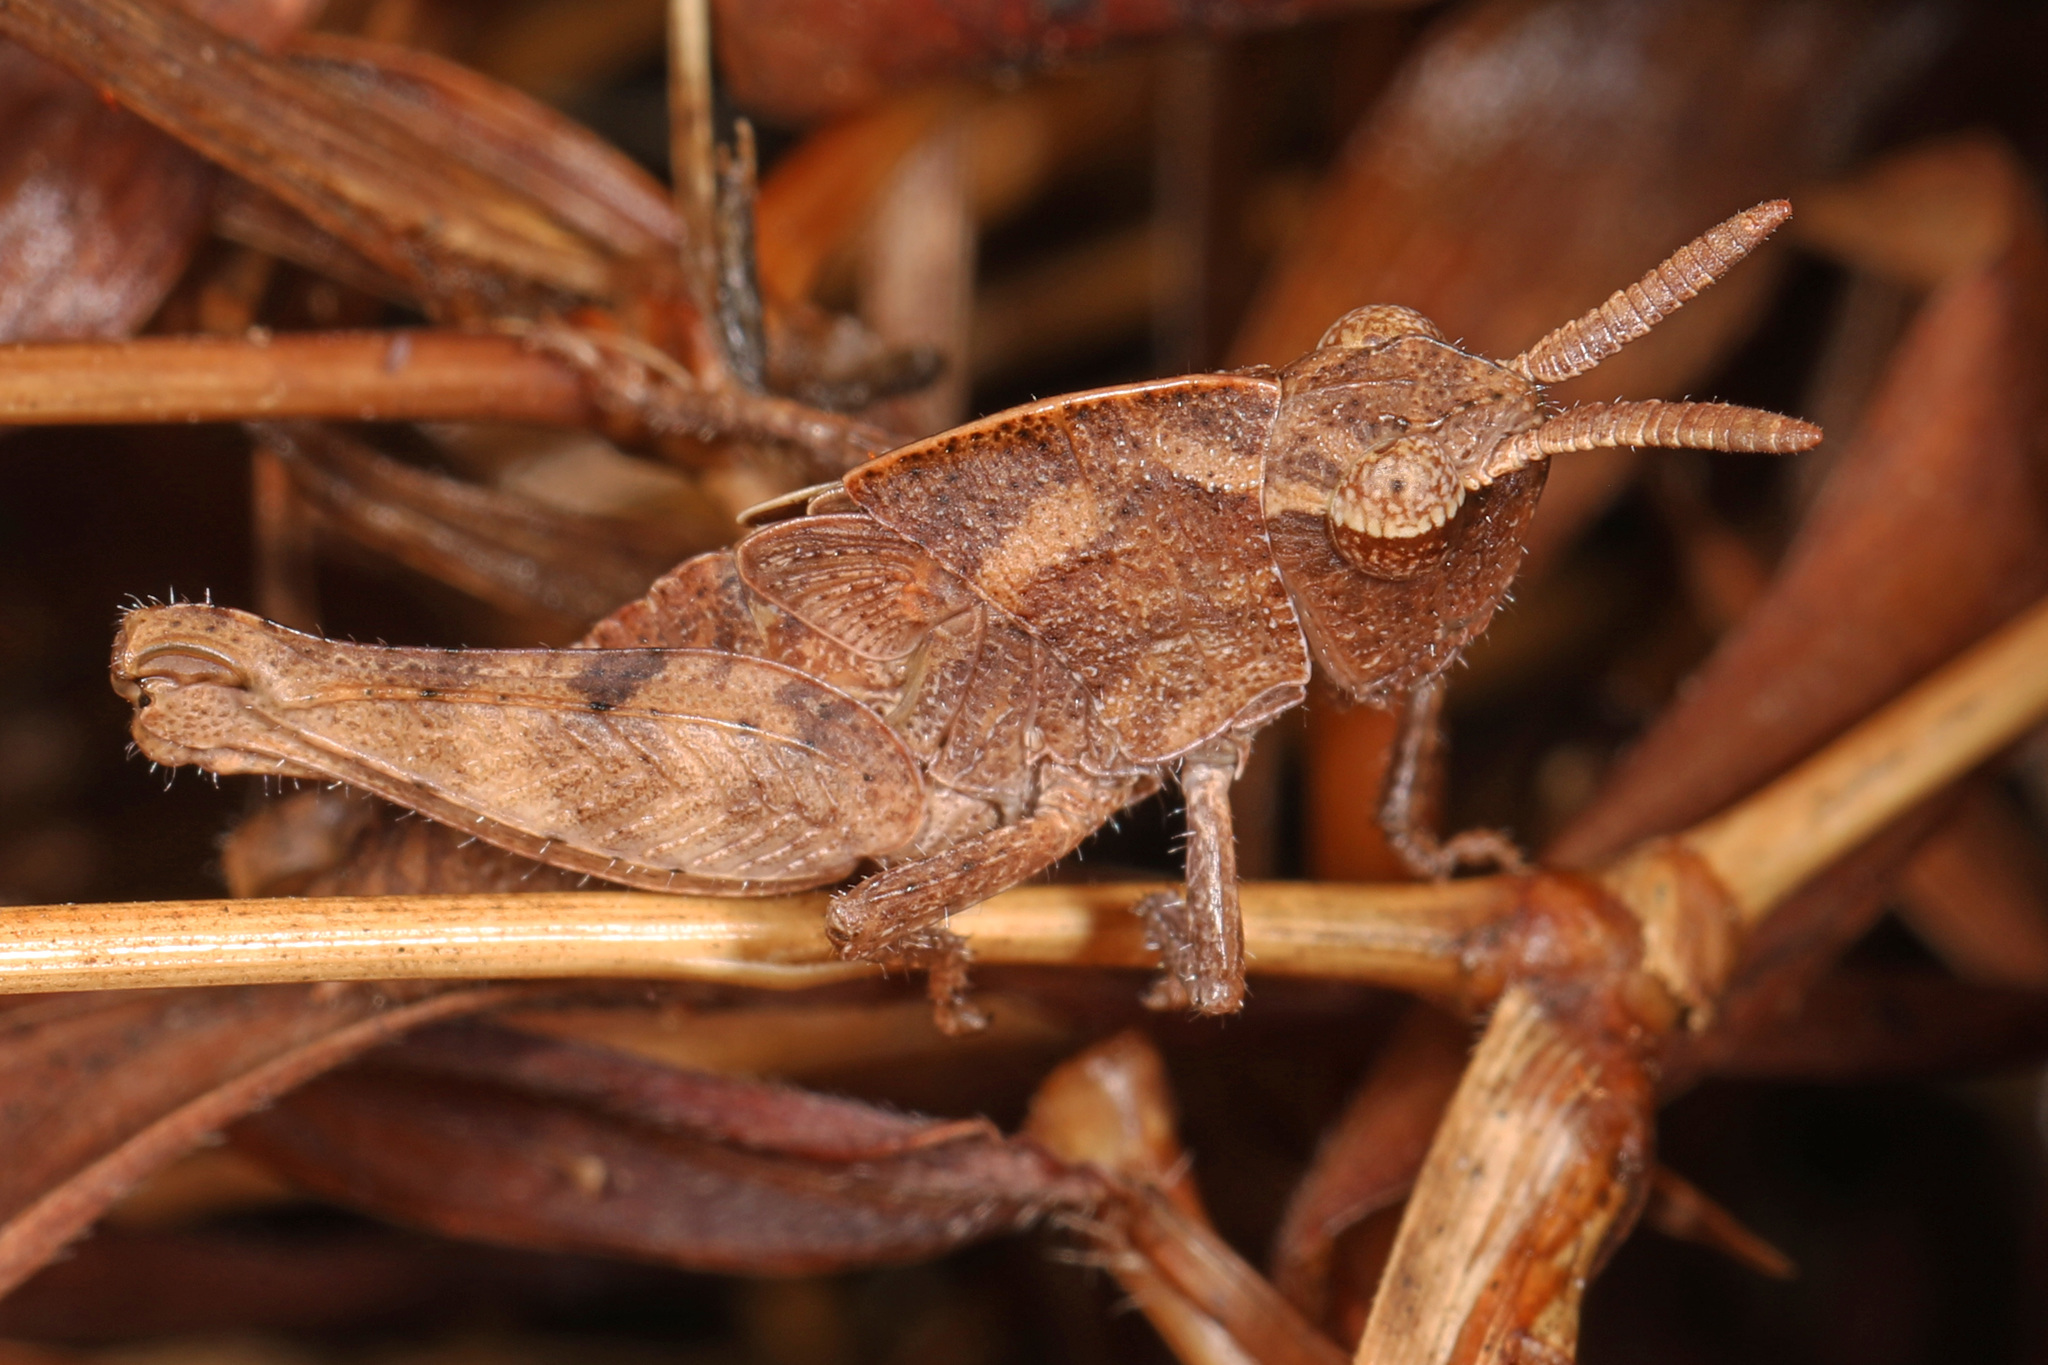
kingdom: Animalia
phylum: Arthropoda
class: Insecta
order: Orthoptera
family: Acrididae
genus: Chortophaga
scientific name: Chortophaga viridifasciata
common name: Green-striped grasshopper
